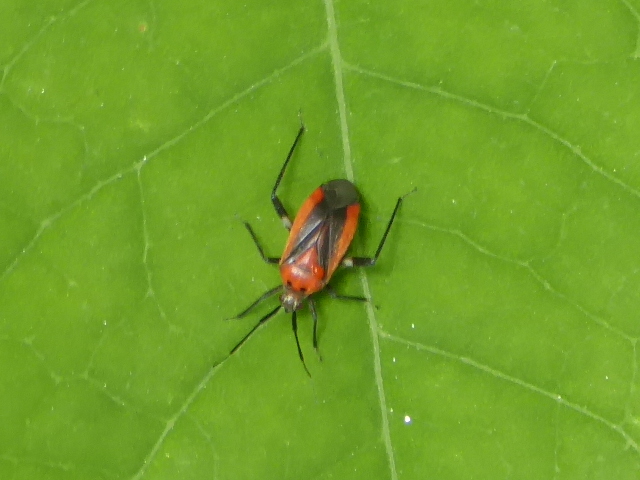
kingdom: Animalia
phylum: Arthropoda
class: Insecta
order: Hemiptera
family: Miridae
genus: Taedia
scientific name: Taedia scrupea
